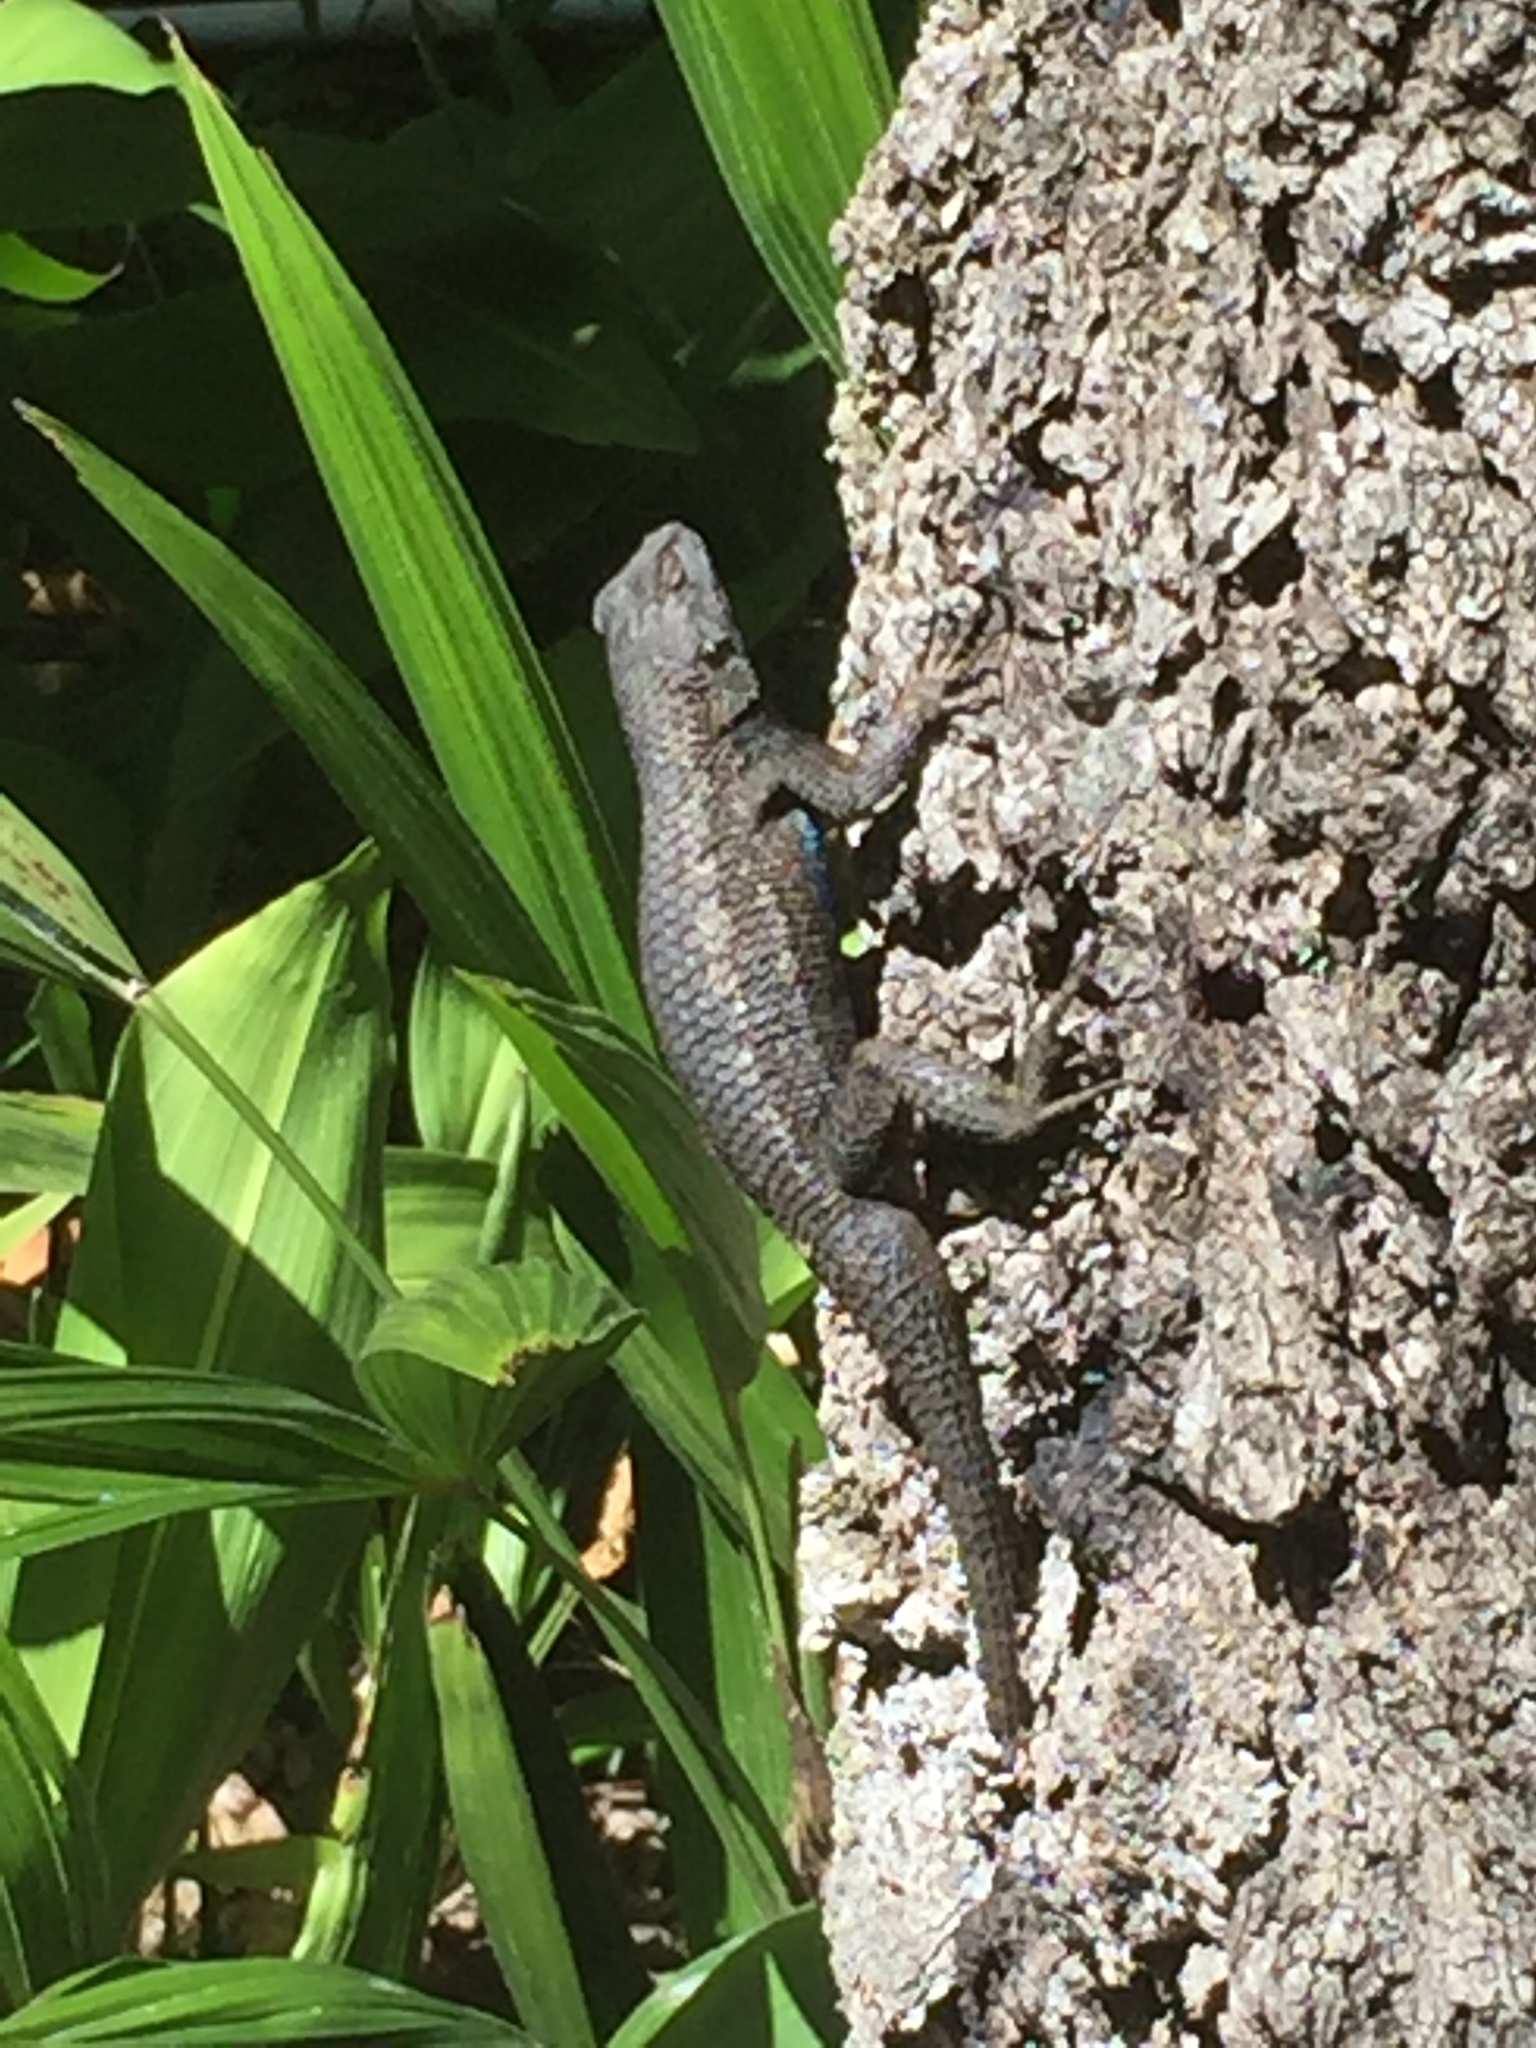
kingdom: Animalia
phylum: Chordata
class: Squamata
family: Phrynosomatidae
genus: Sceloporus
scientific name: Sceloporus occidentalis
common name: Western fence lizard
